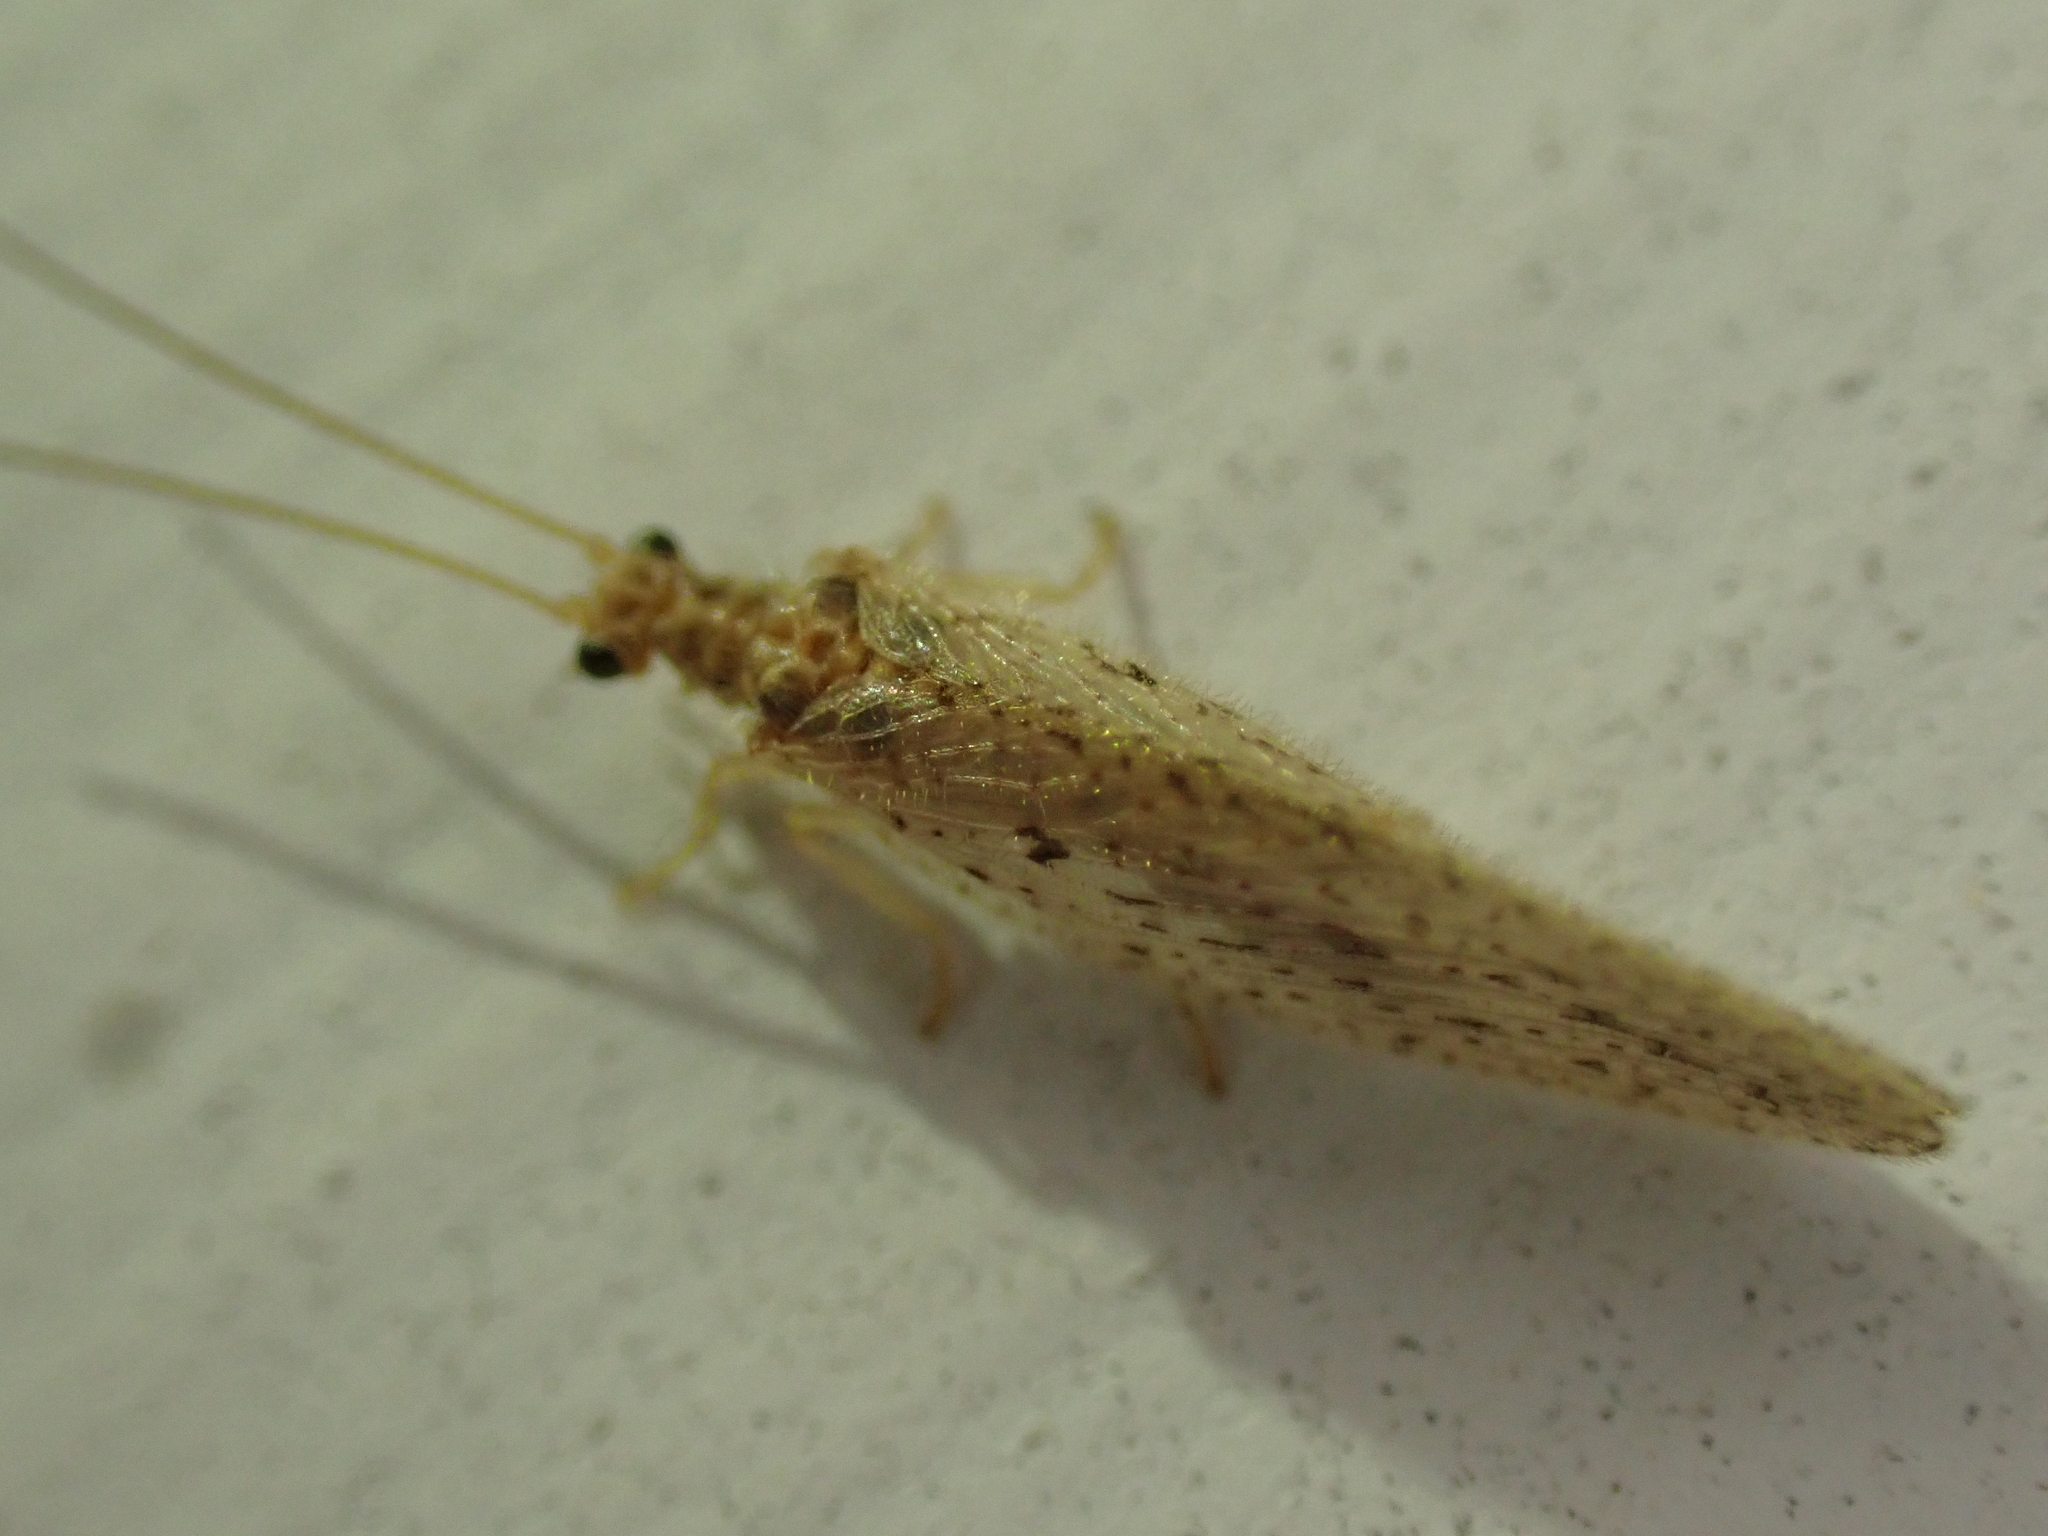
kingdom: Animalia
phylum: Arthropoda
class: Insecta
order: Neuroptera
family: Hemerobiidae
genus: Micromus
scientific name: Micromus subanticus
